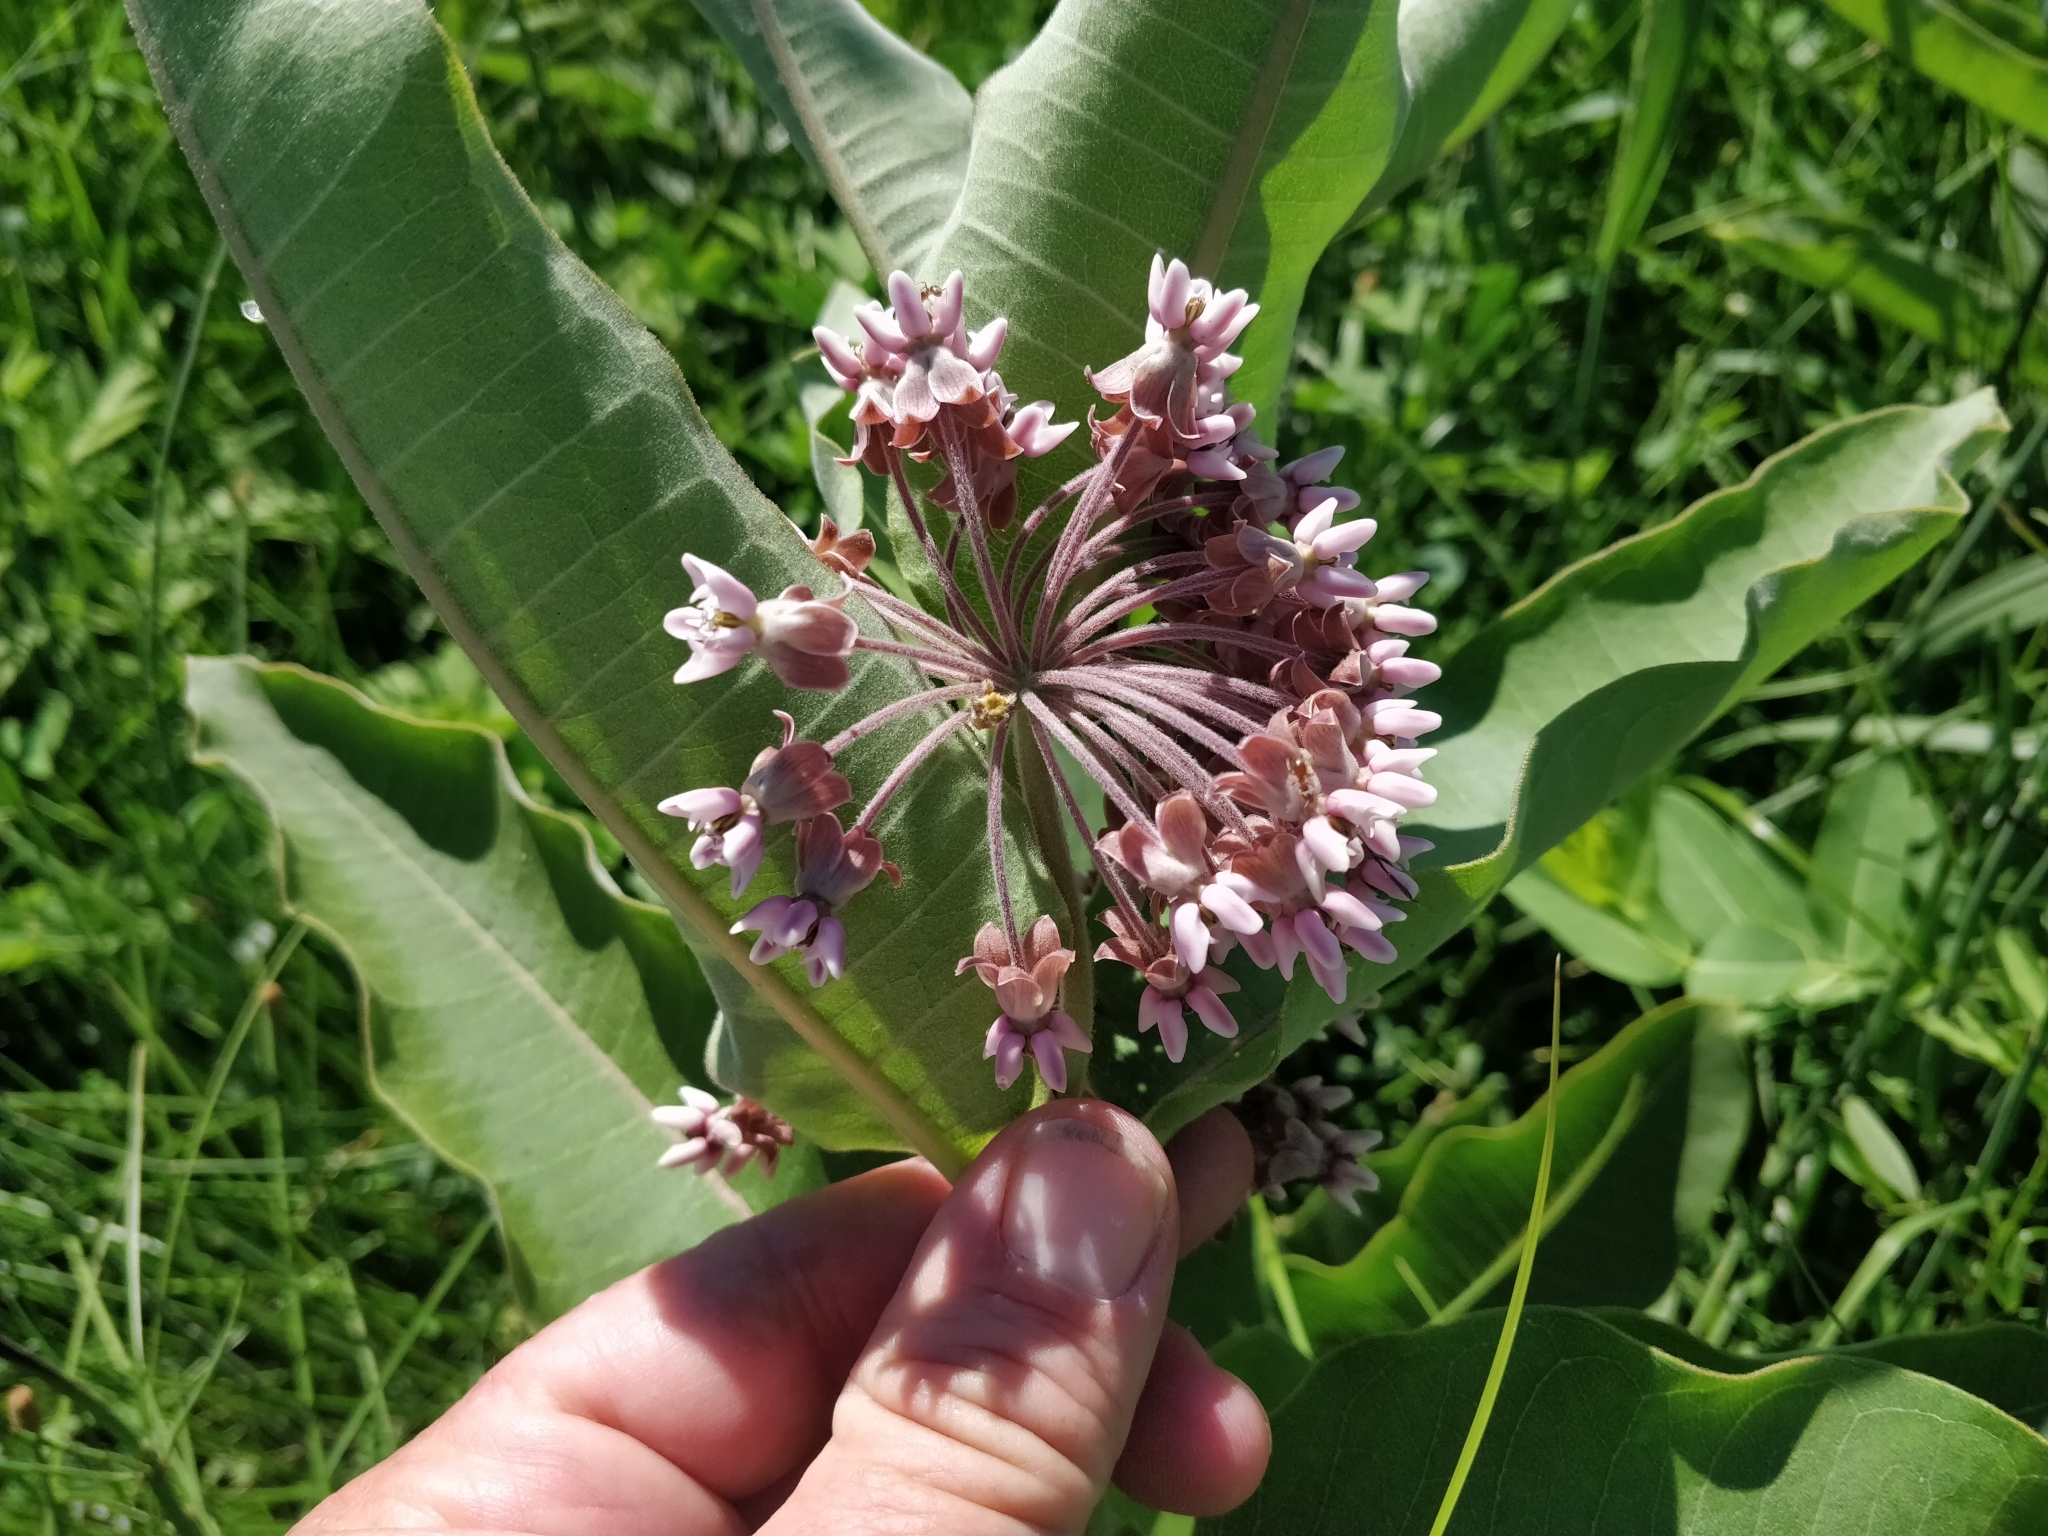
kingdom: Plantae
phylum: Tracheophyta
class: Magnoliopsida
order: Gentianales
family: Apocynaceae
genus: Asclepias
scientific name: Asclepias syriaca
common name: Common milkweed
